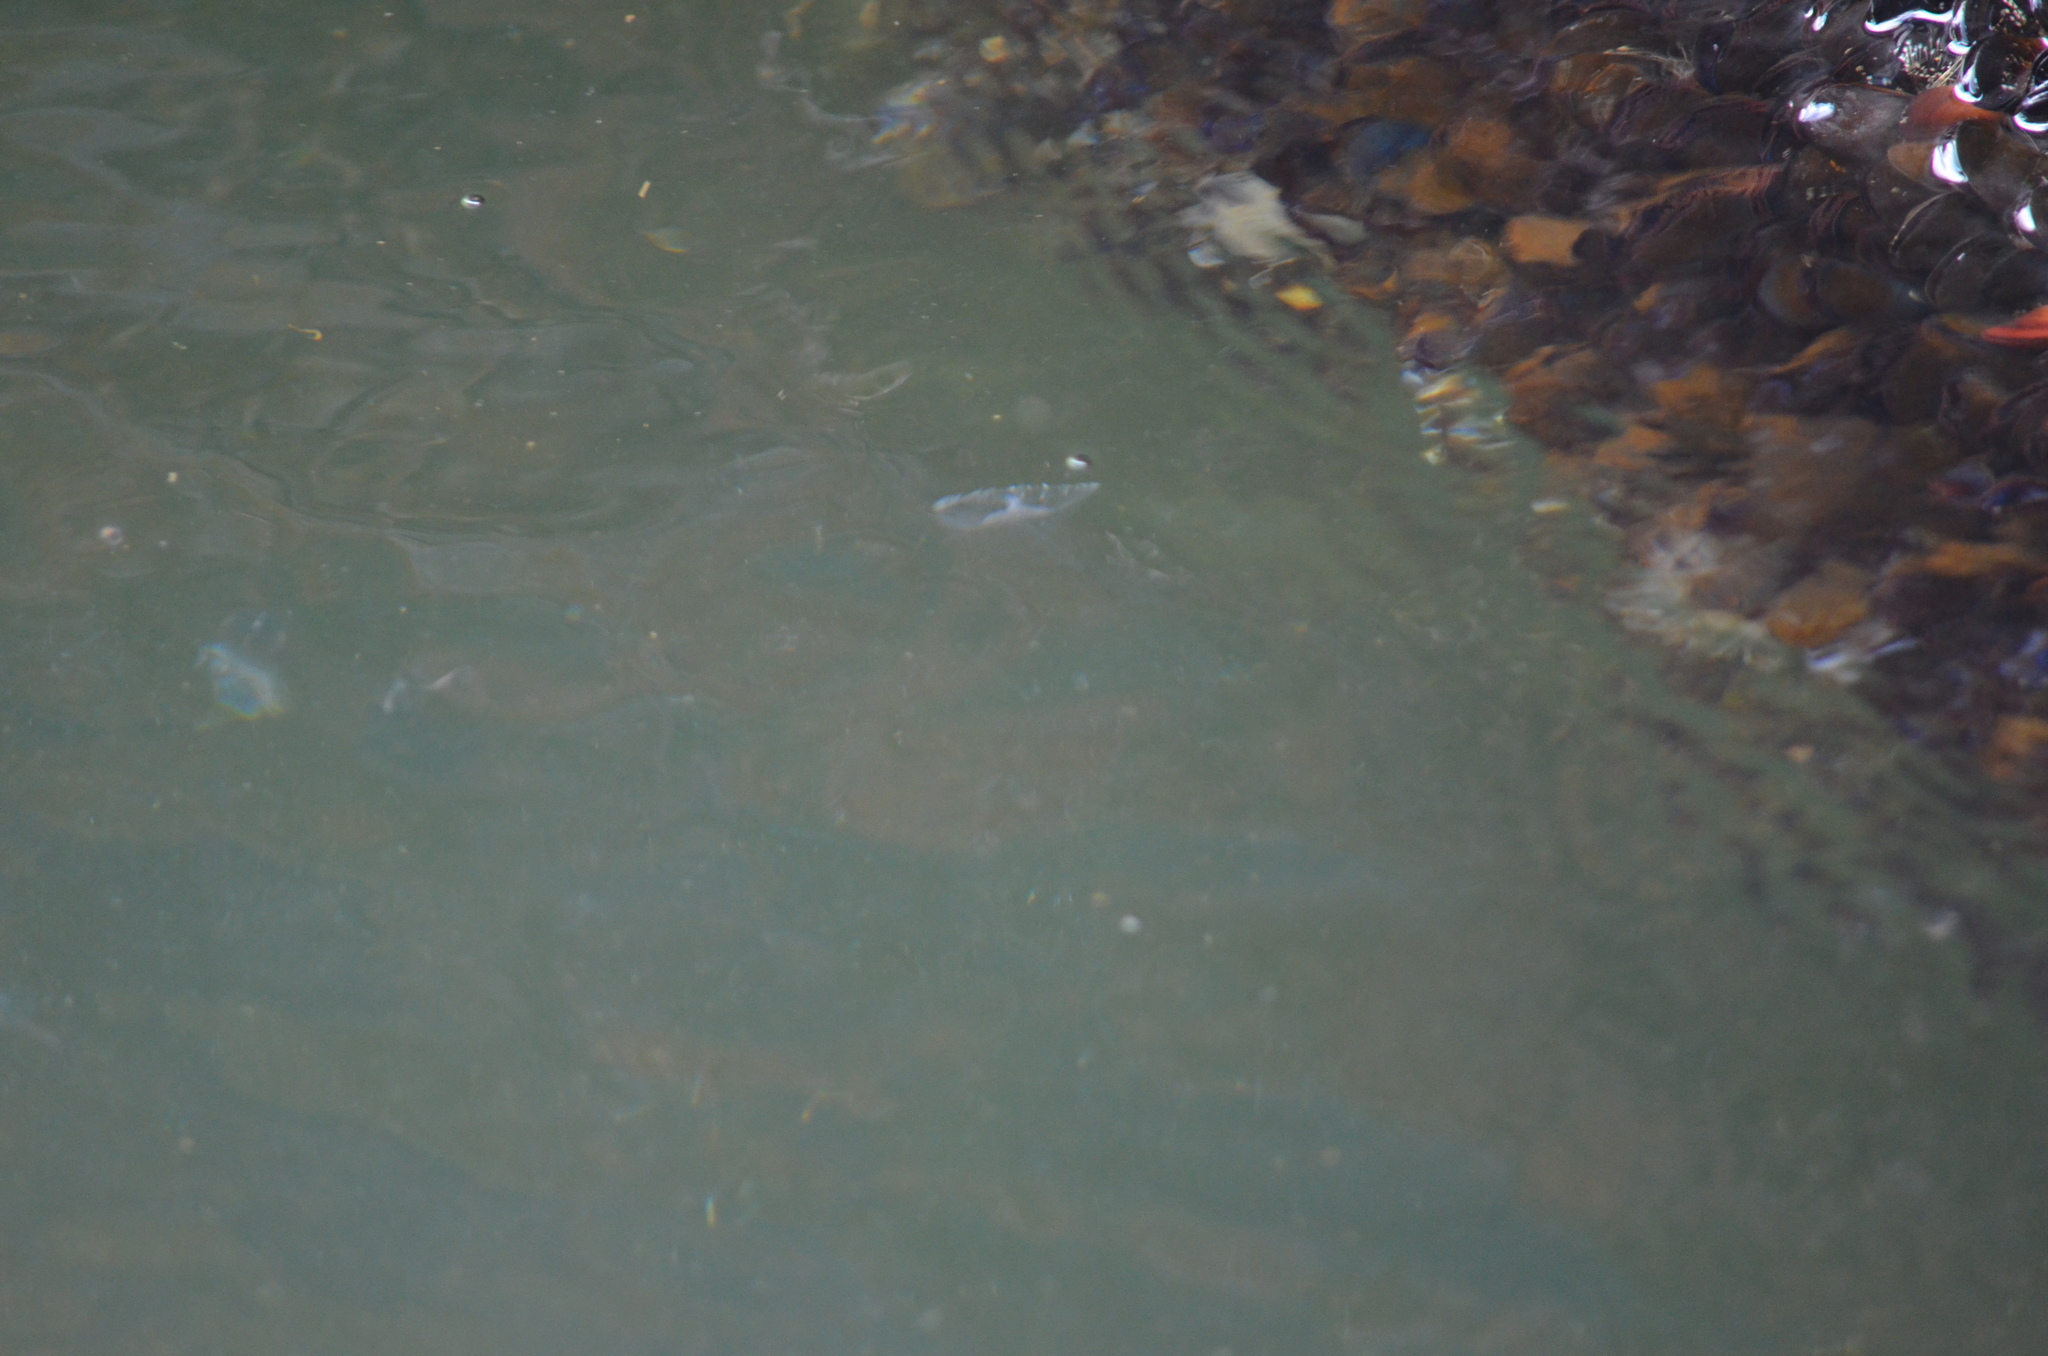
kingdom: Animalia
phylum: Cnidaria
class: Hydrozoa
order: Leptothecata
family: Aequoreidae
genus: Aequorea
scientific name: Aequorea victoria
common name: Water jellyfish
